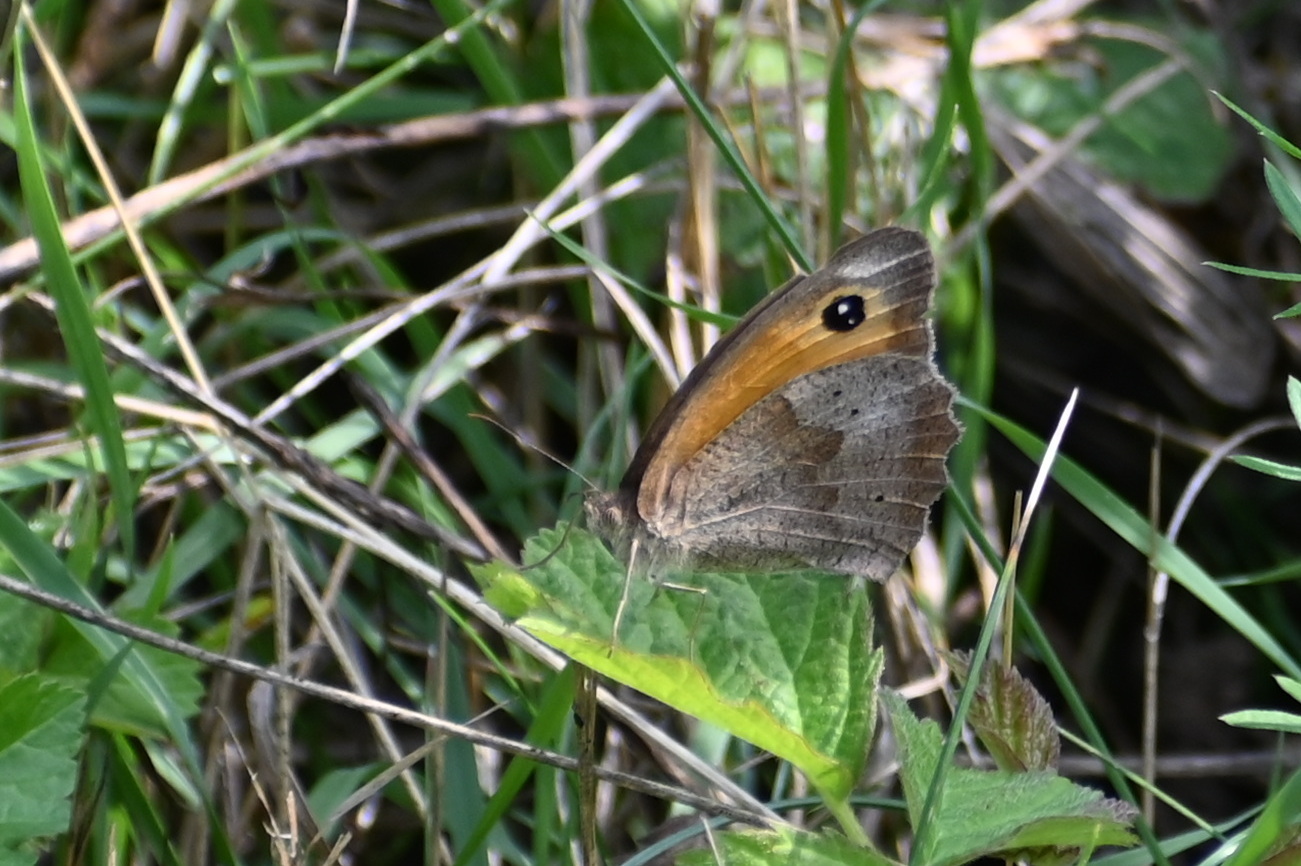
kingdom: Animalia
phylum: Arthropoda
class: Insecta
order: Lepidoptera
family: Nymphalidae
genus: Maniola
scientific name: Maniola jurtina
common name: Meadow brown
